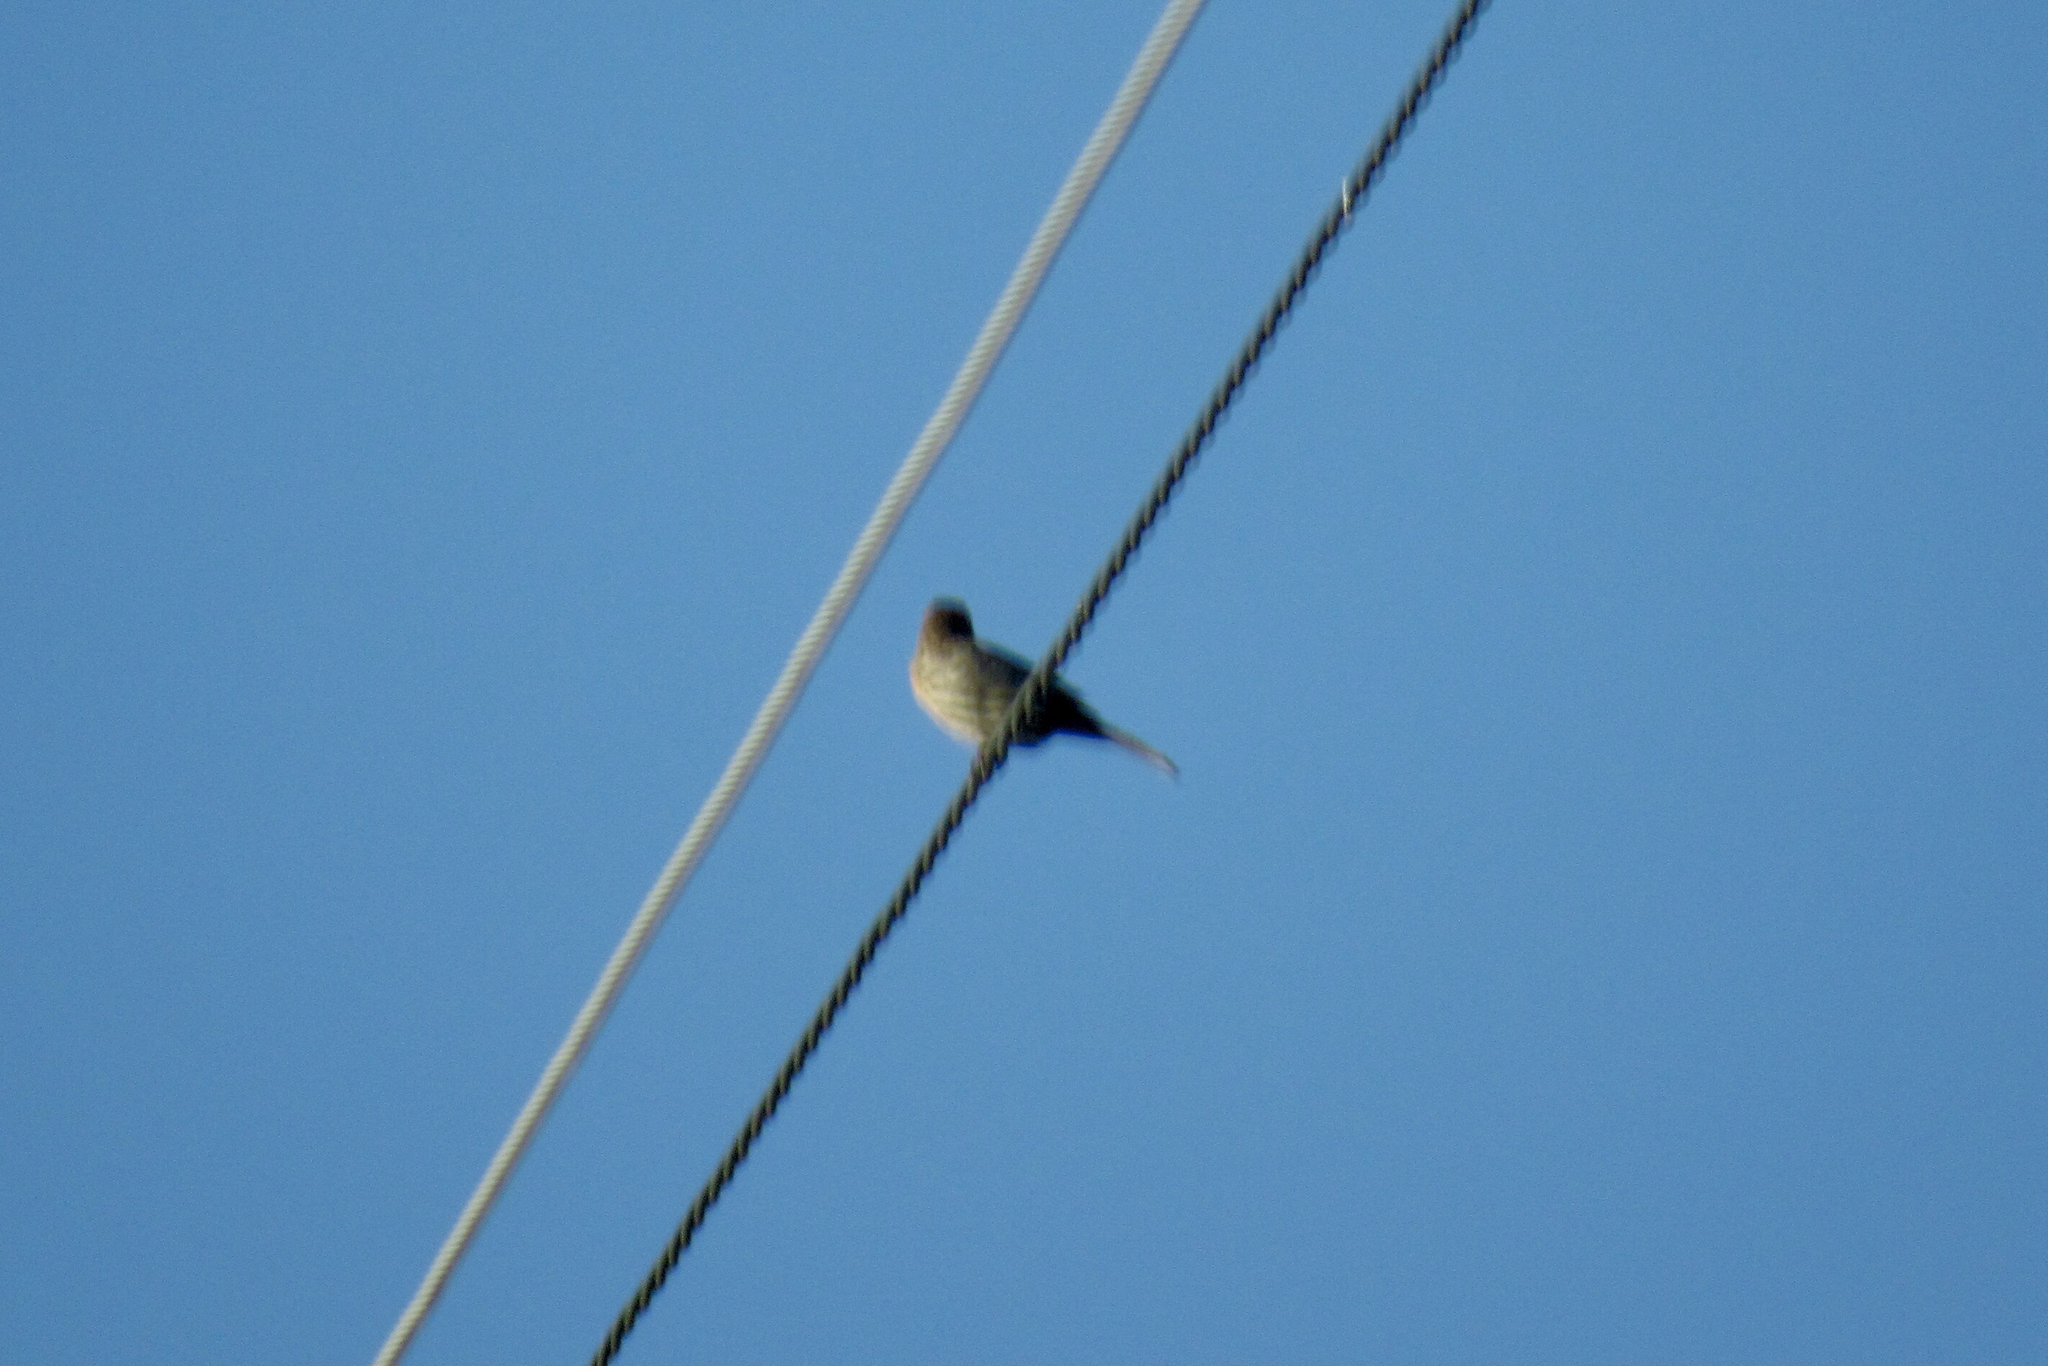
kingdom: Animalia
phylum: Chordata
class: Aves
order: Passeriformes
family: Fringillidae
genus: Haemorhous
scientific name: Haemorhous mexicanus
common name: House finch
